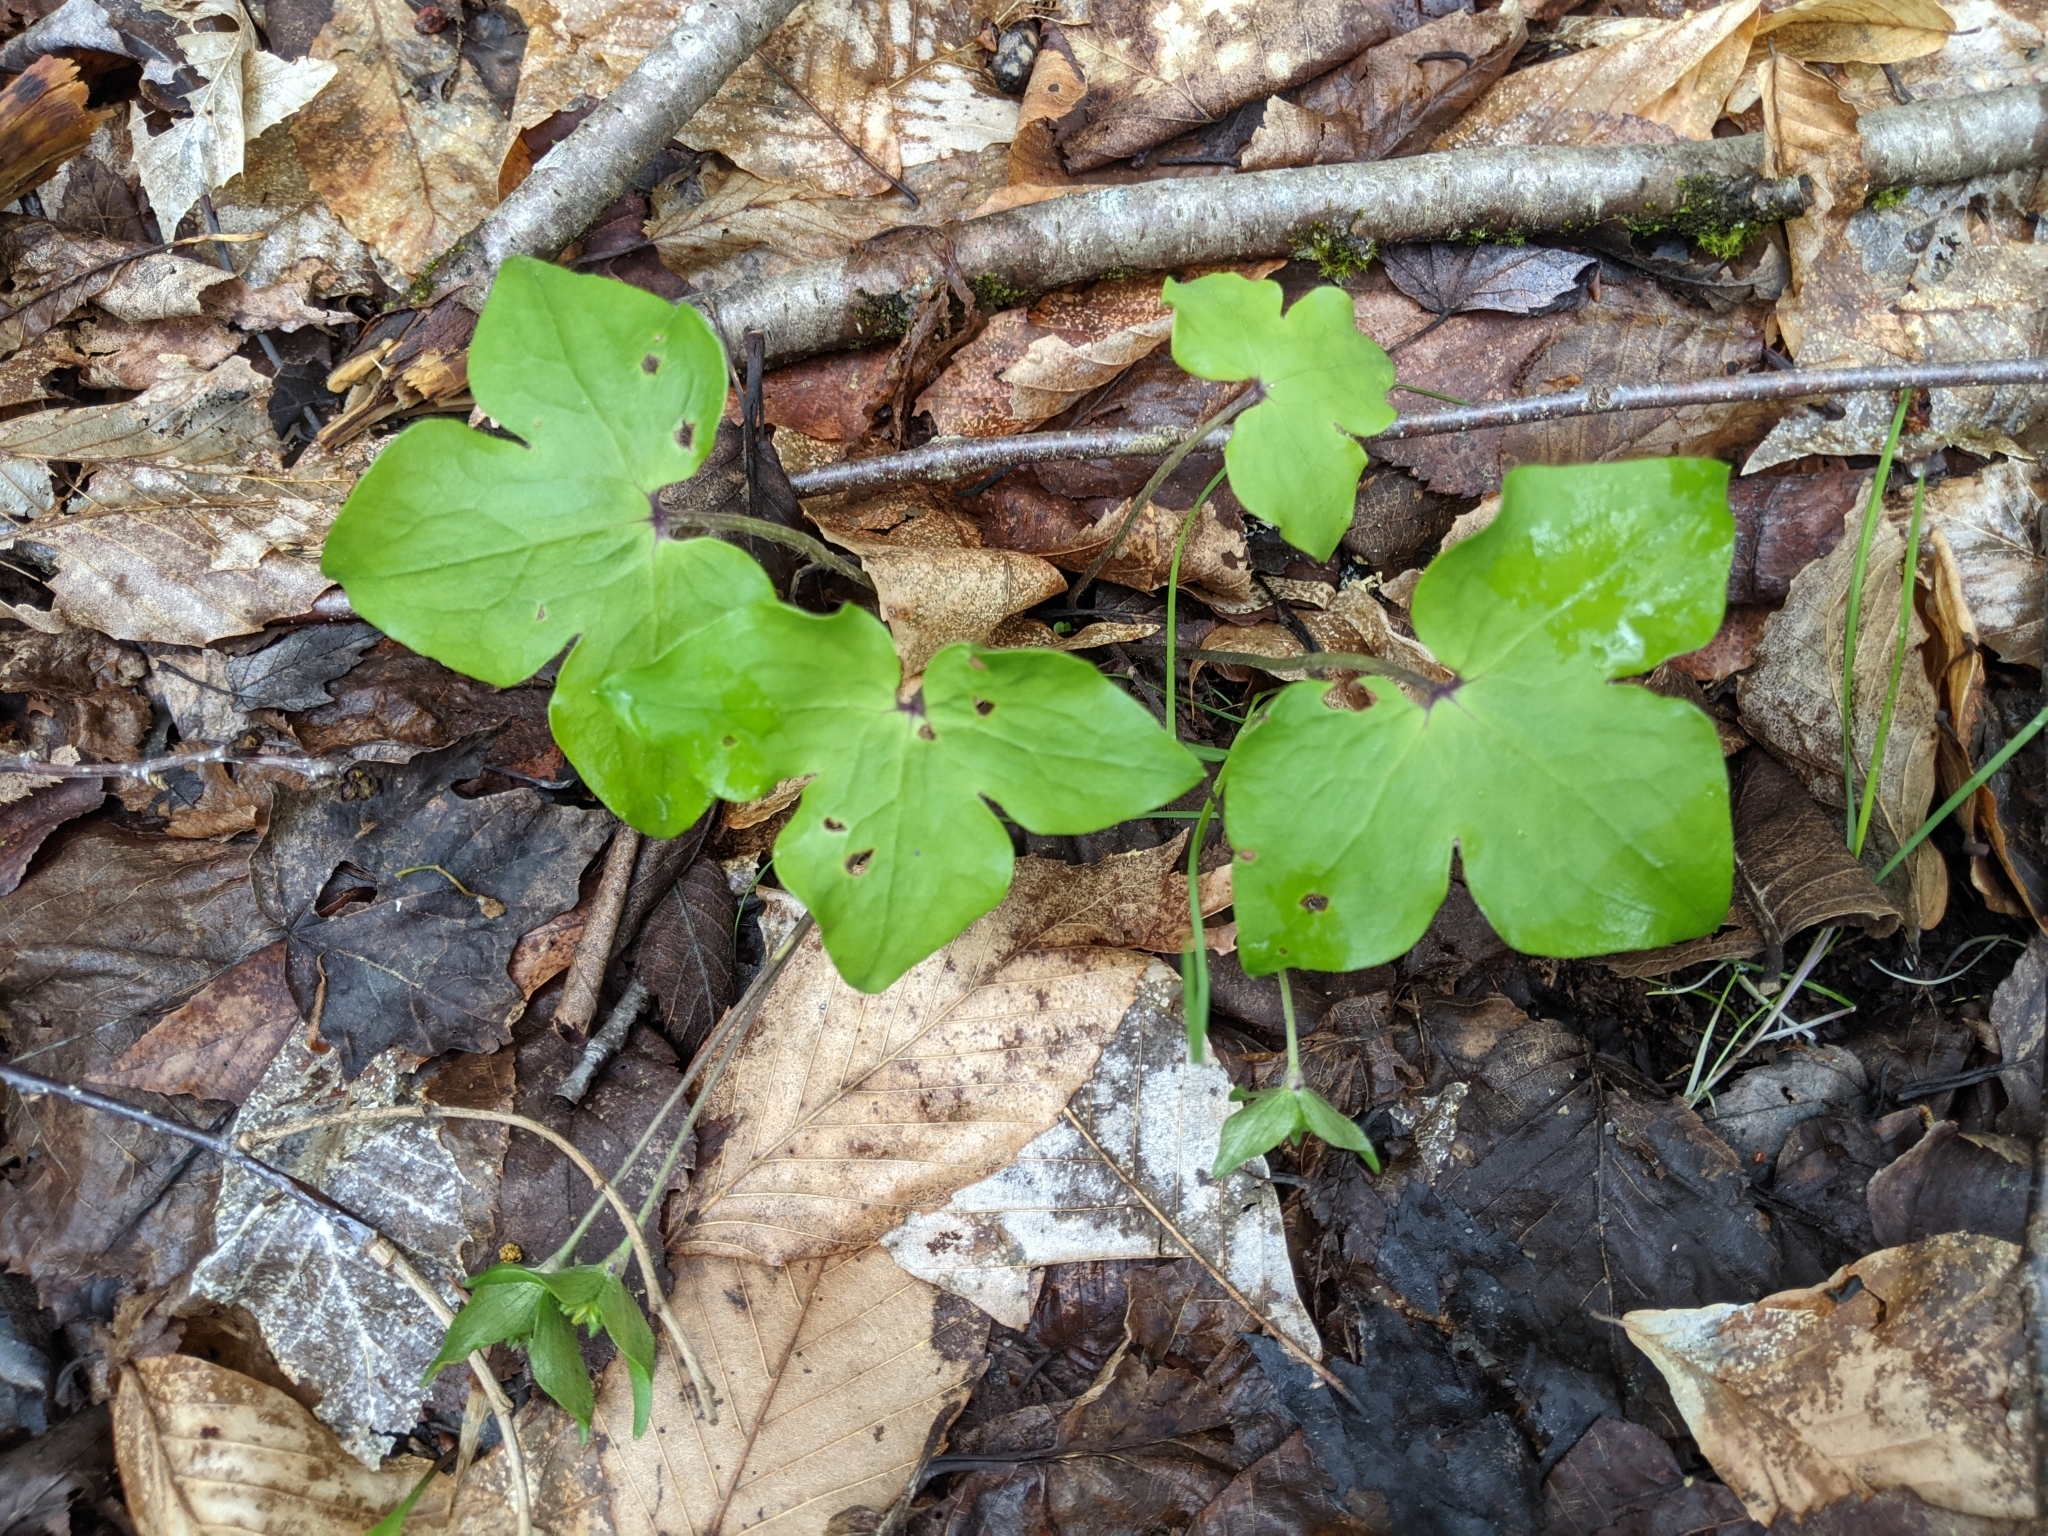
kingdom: Plantae
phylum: Tracheophyta
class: Magnoliopsida
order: Ranunculales
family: Ranunculaceae
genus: Hepatica
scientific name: Hepatica acutiloba
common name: Sharp-lobed hepatica
